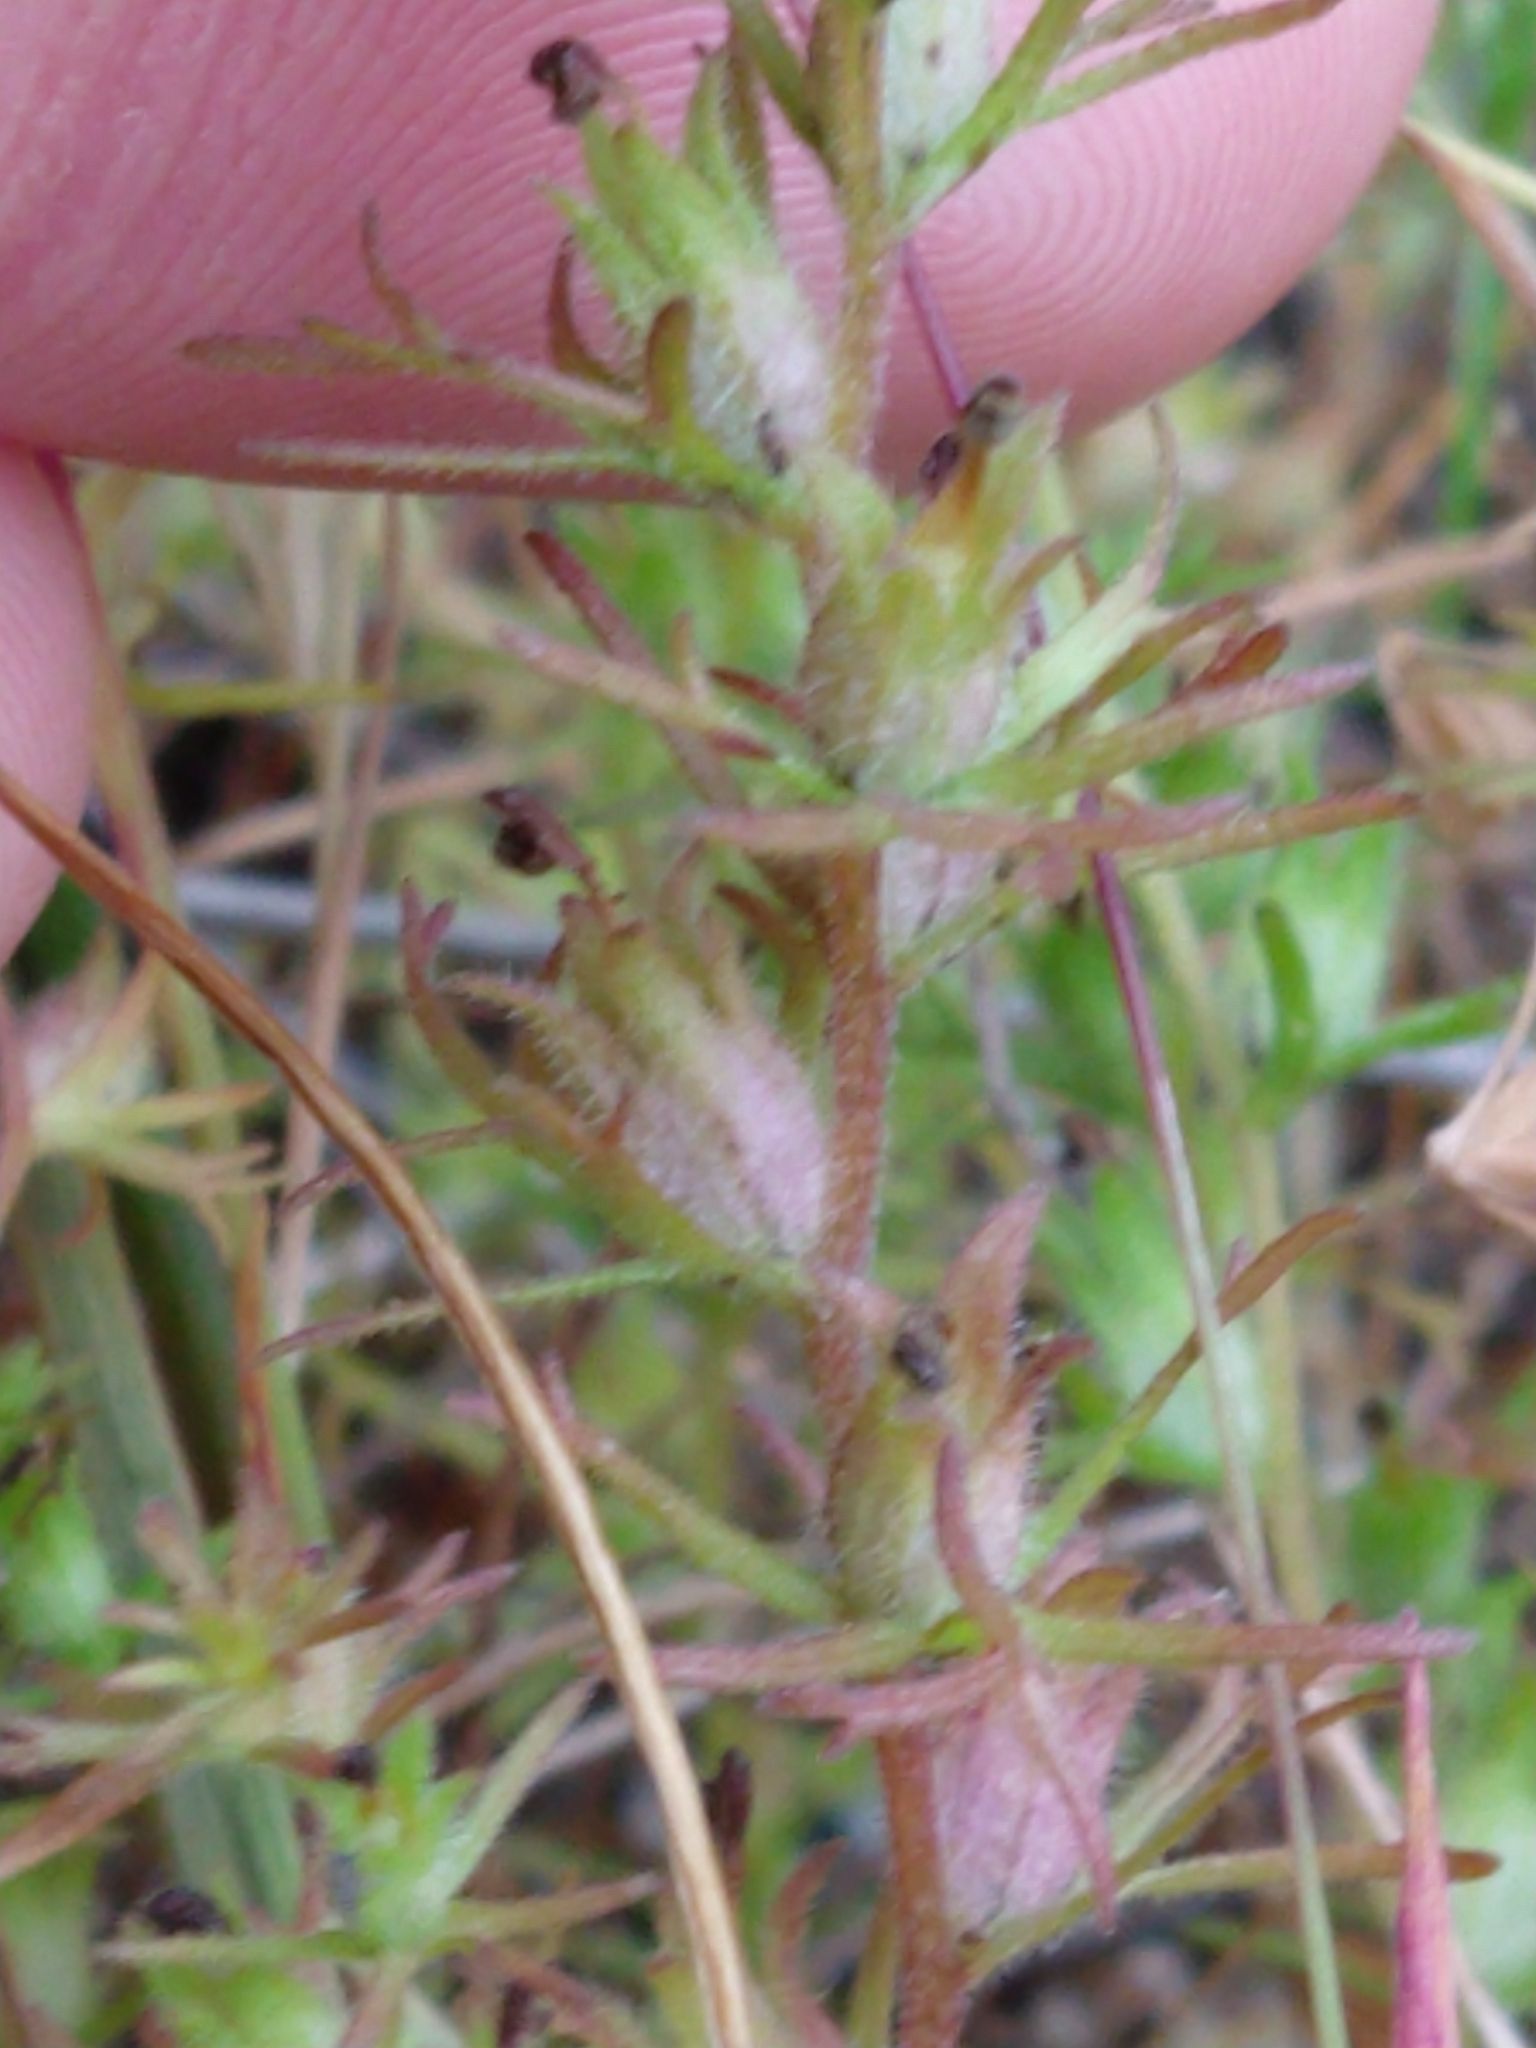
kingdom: Plantae
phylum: Tracheophyta
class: Magnoliopsida
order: Lamiales
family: Orobanchaceae
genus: Triphysaria
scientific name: Triphysaria pusilla
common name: Dwarf false owl-clover
